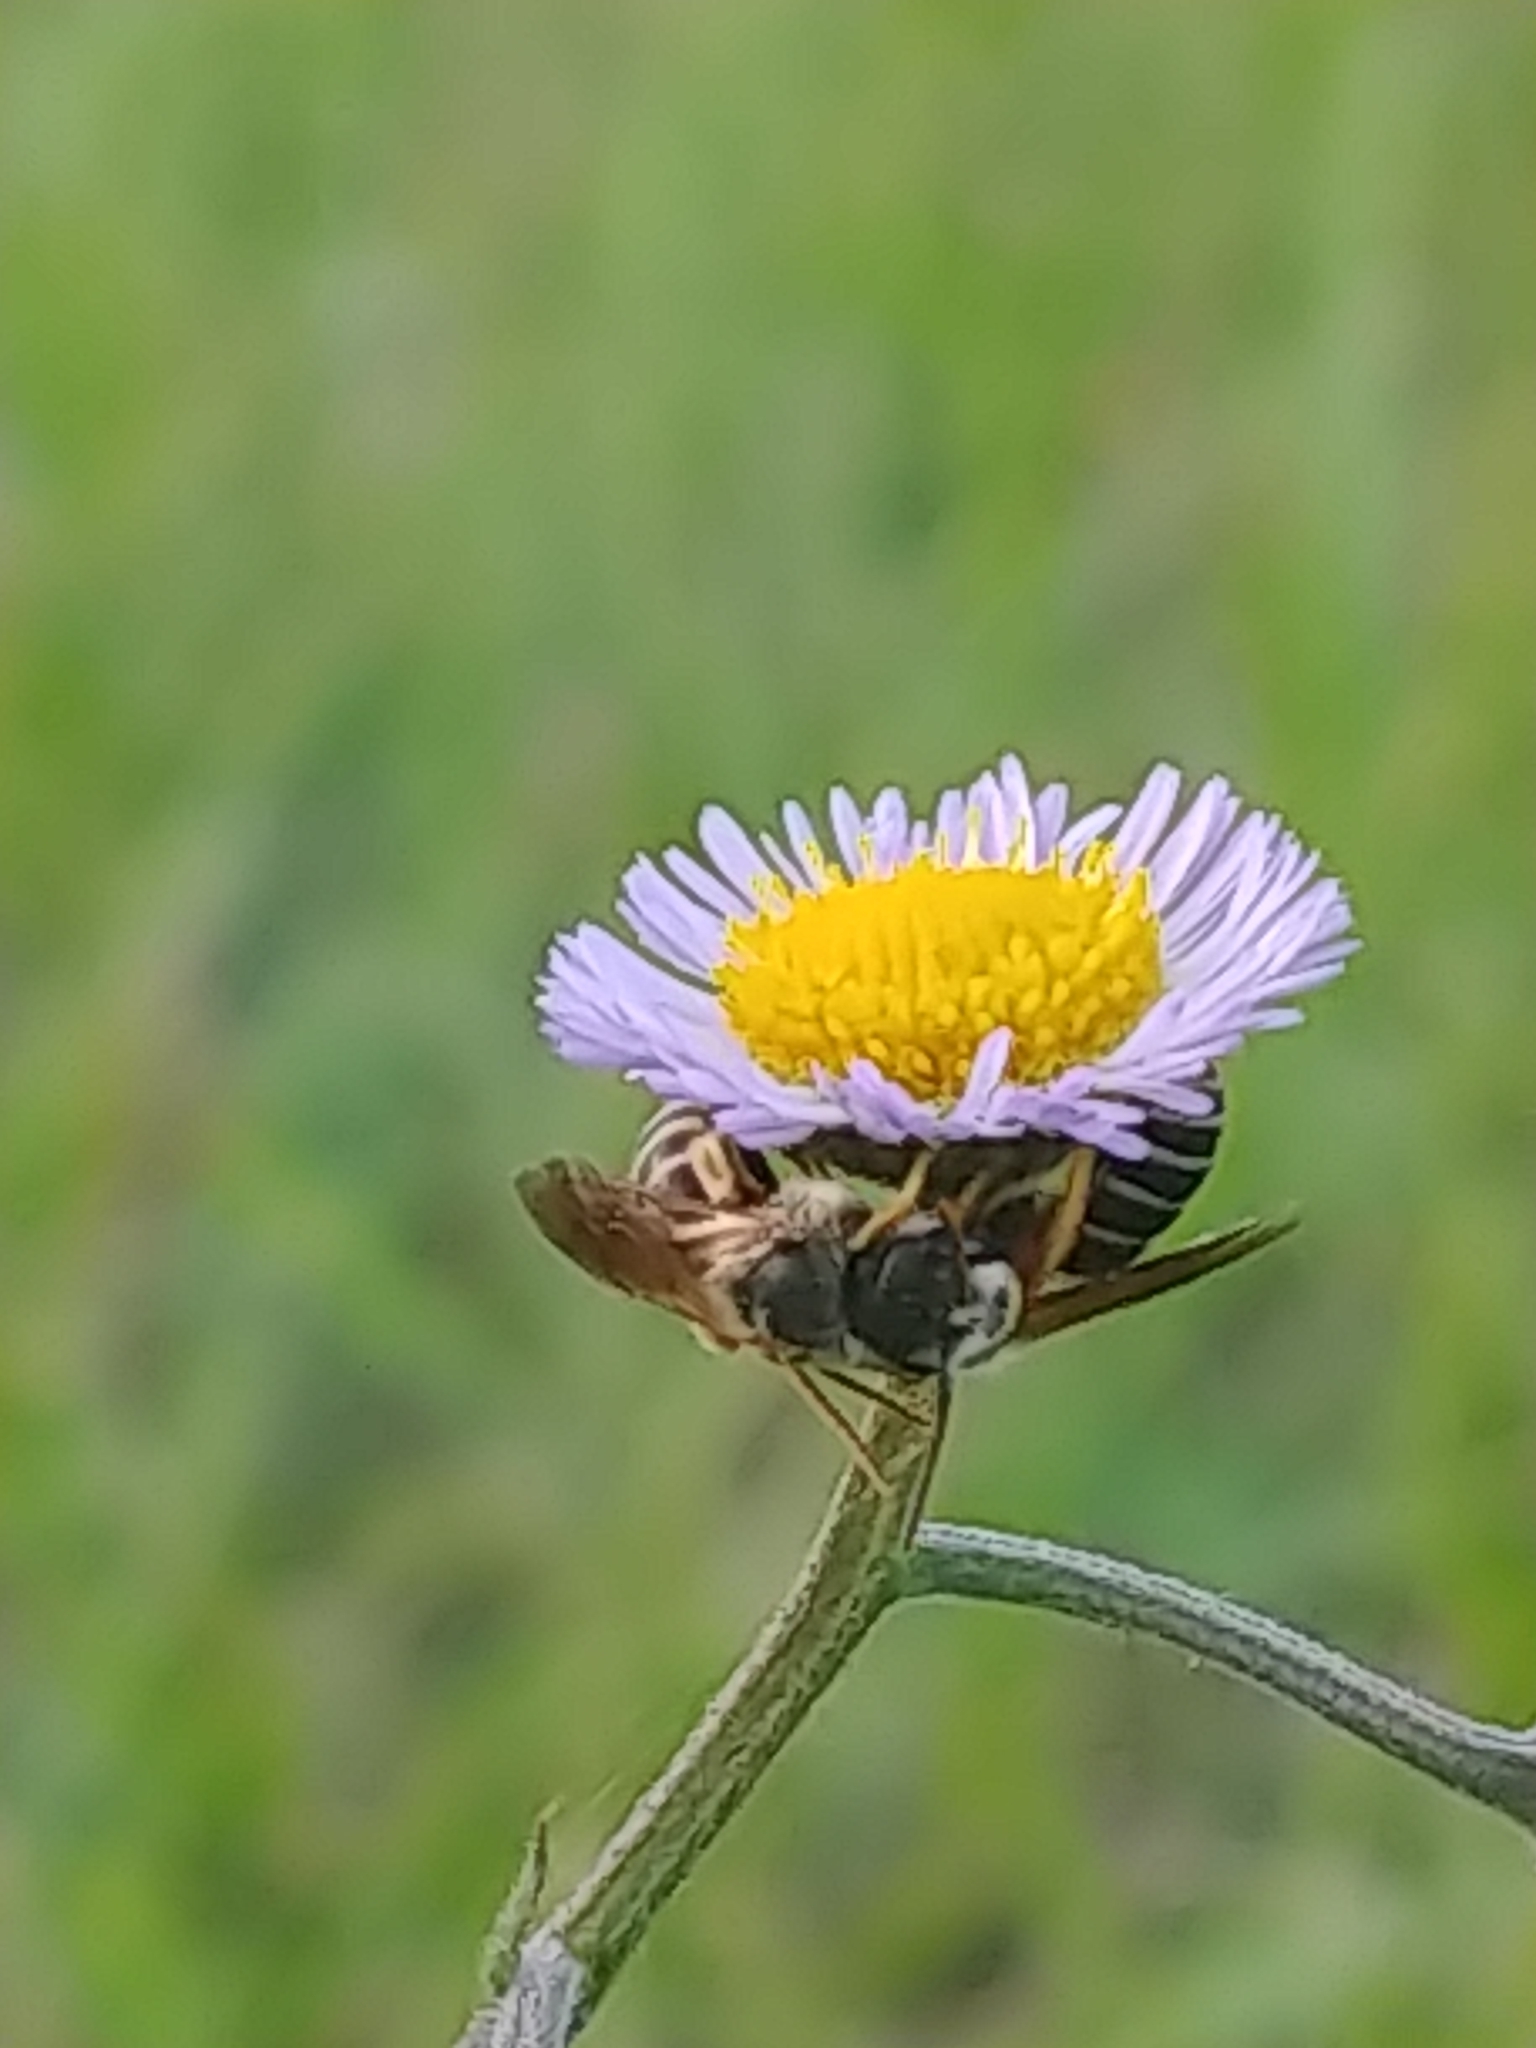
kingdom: Animalia
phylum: Arthropoda
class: Insecta
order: Hymenoptera
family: Halictidae
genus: Halictus
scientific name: Halictus poeyi
